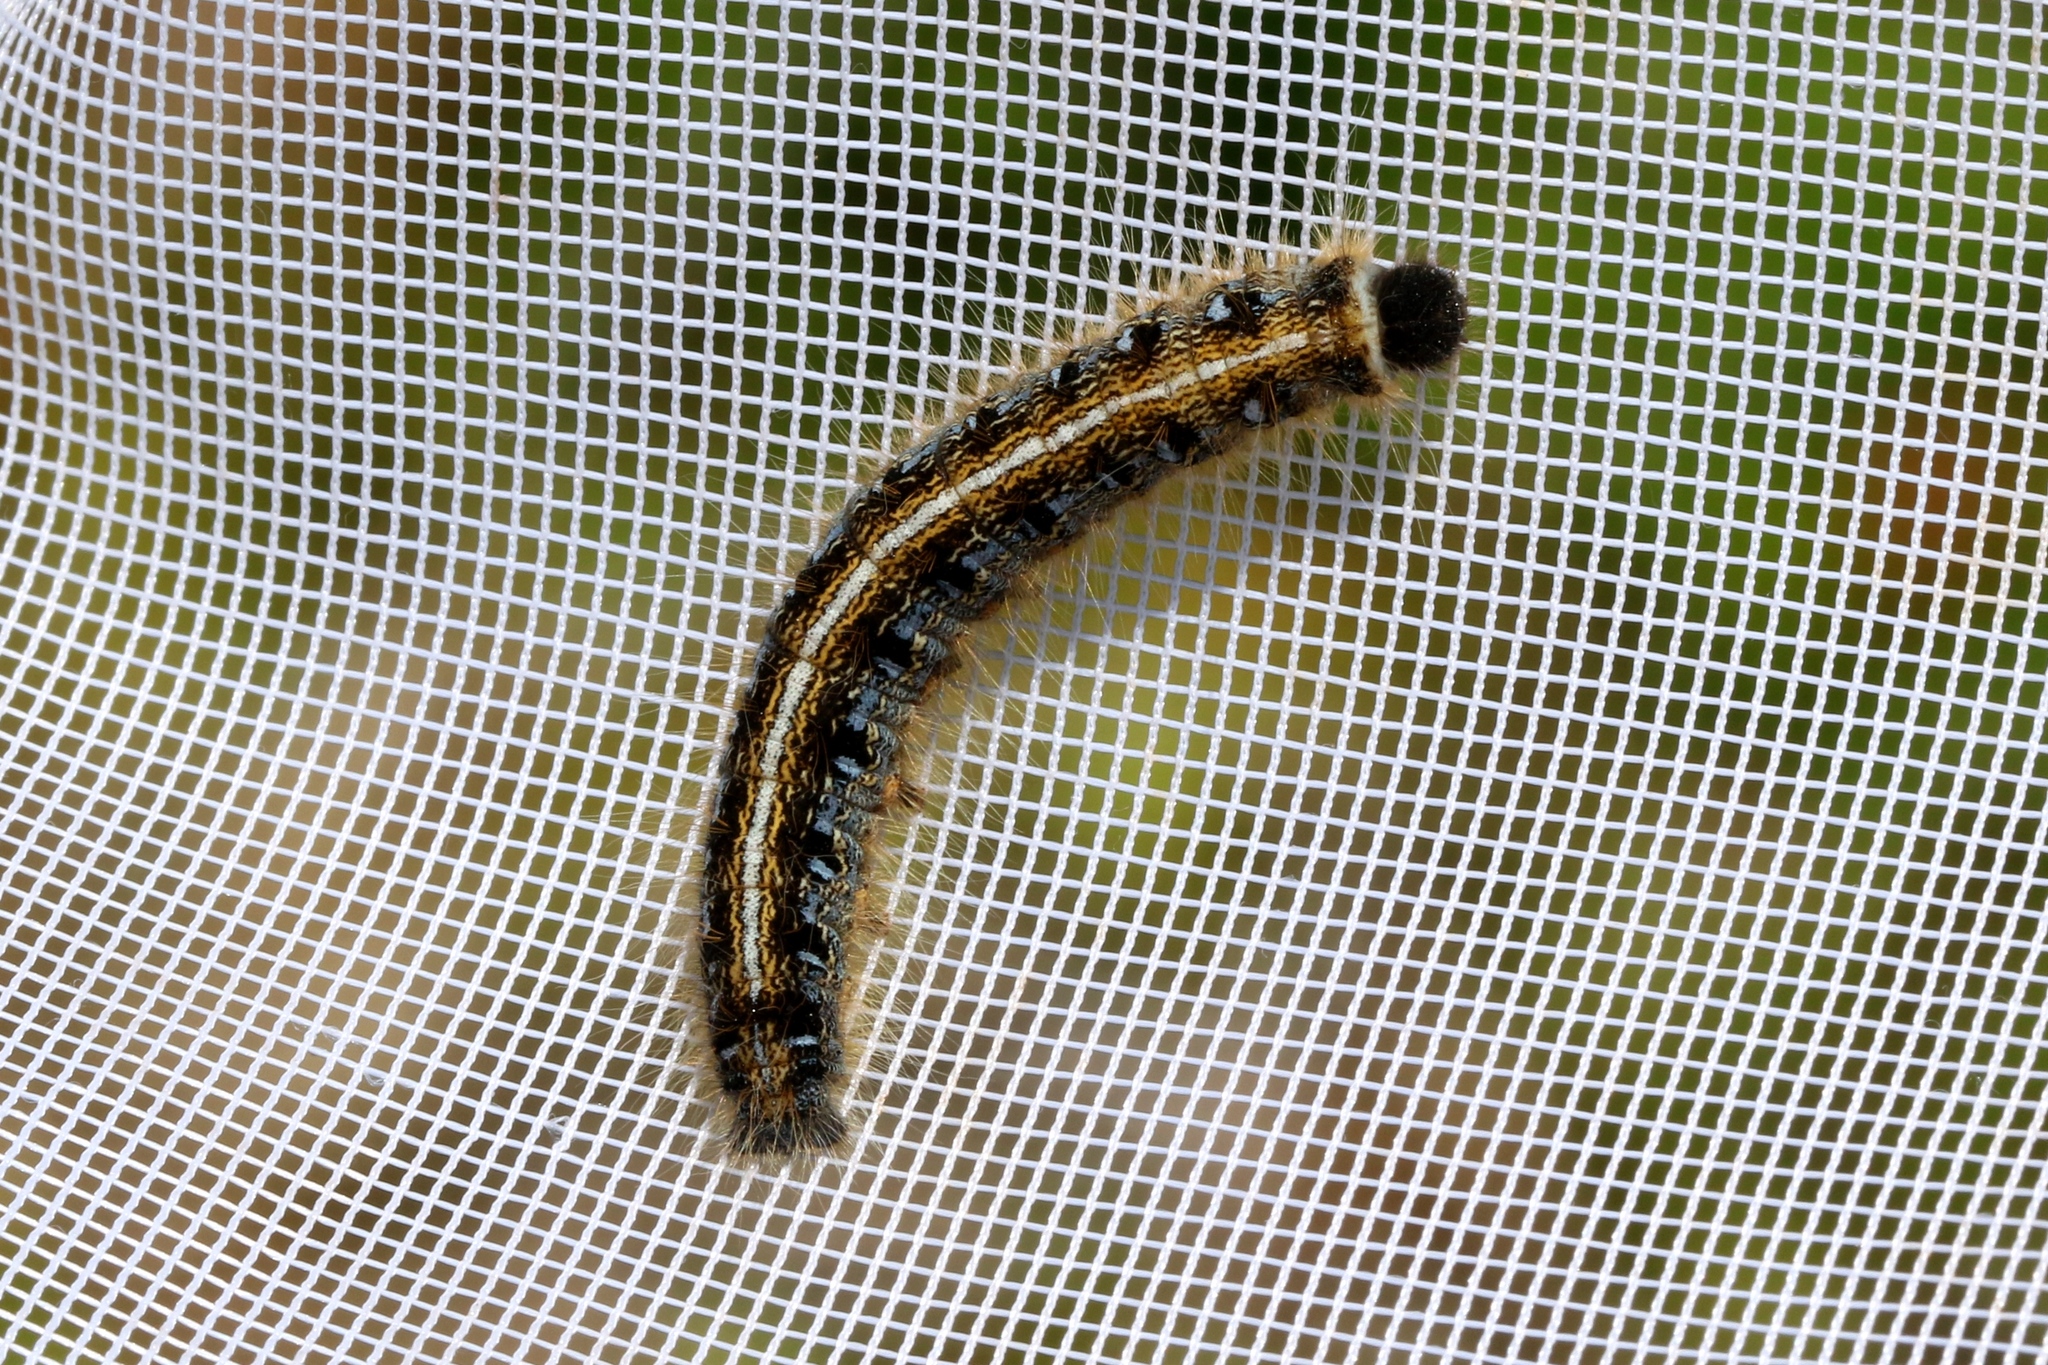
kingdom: Animalia
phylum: Arthropoda
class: Insecta
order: Lepidoptera
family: Lasiocampidae
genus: Malacosoma
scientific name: Malacosoma americana
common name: Eastern tent caterpillar moth
